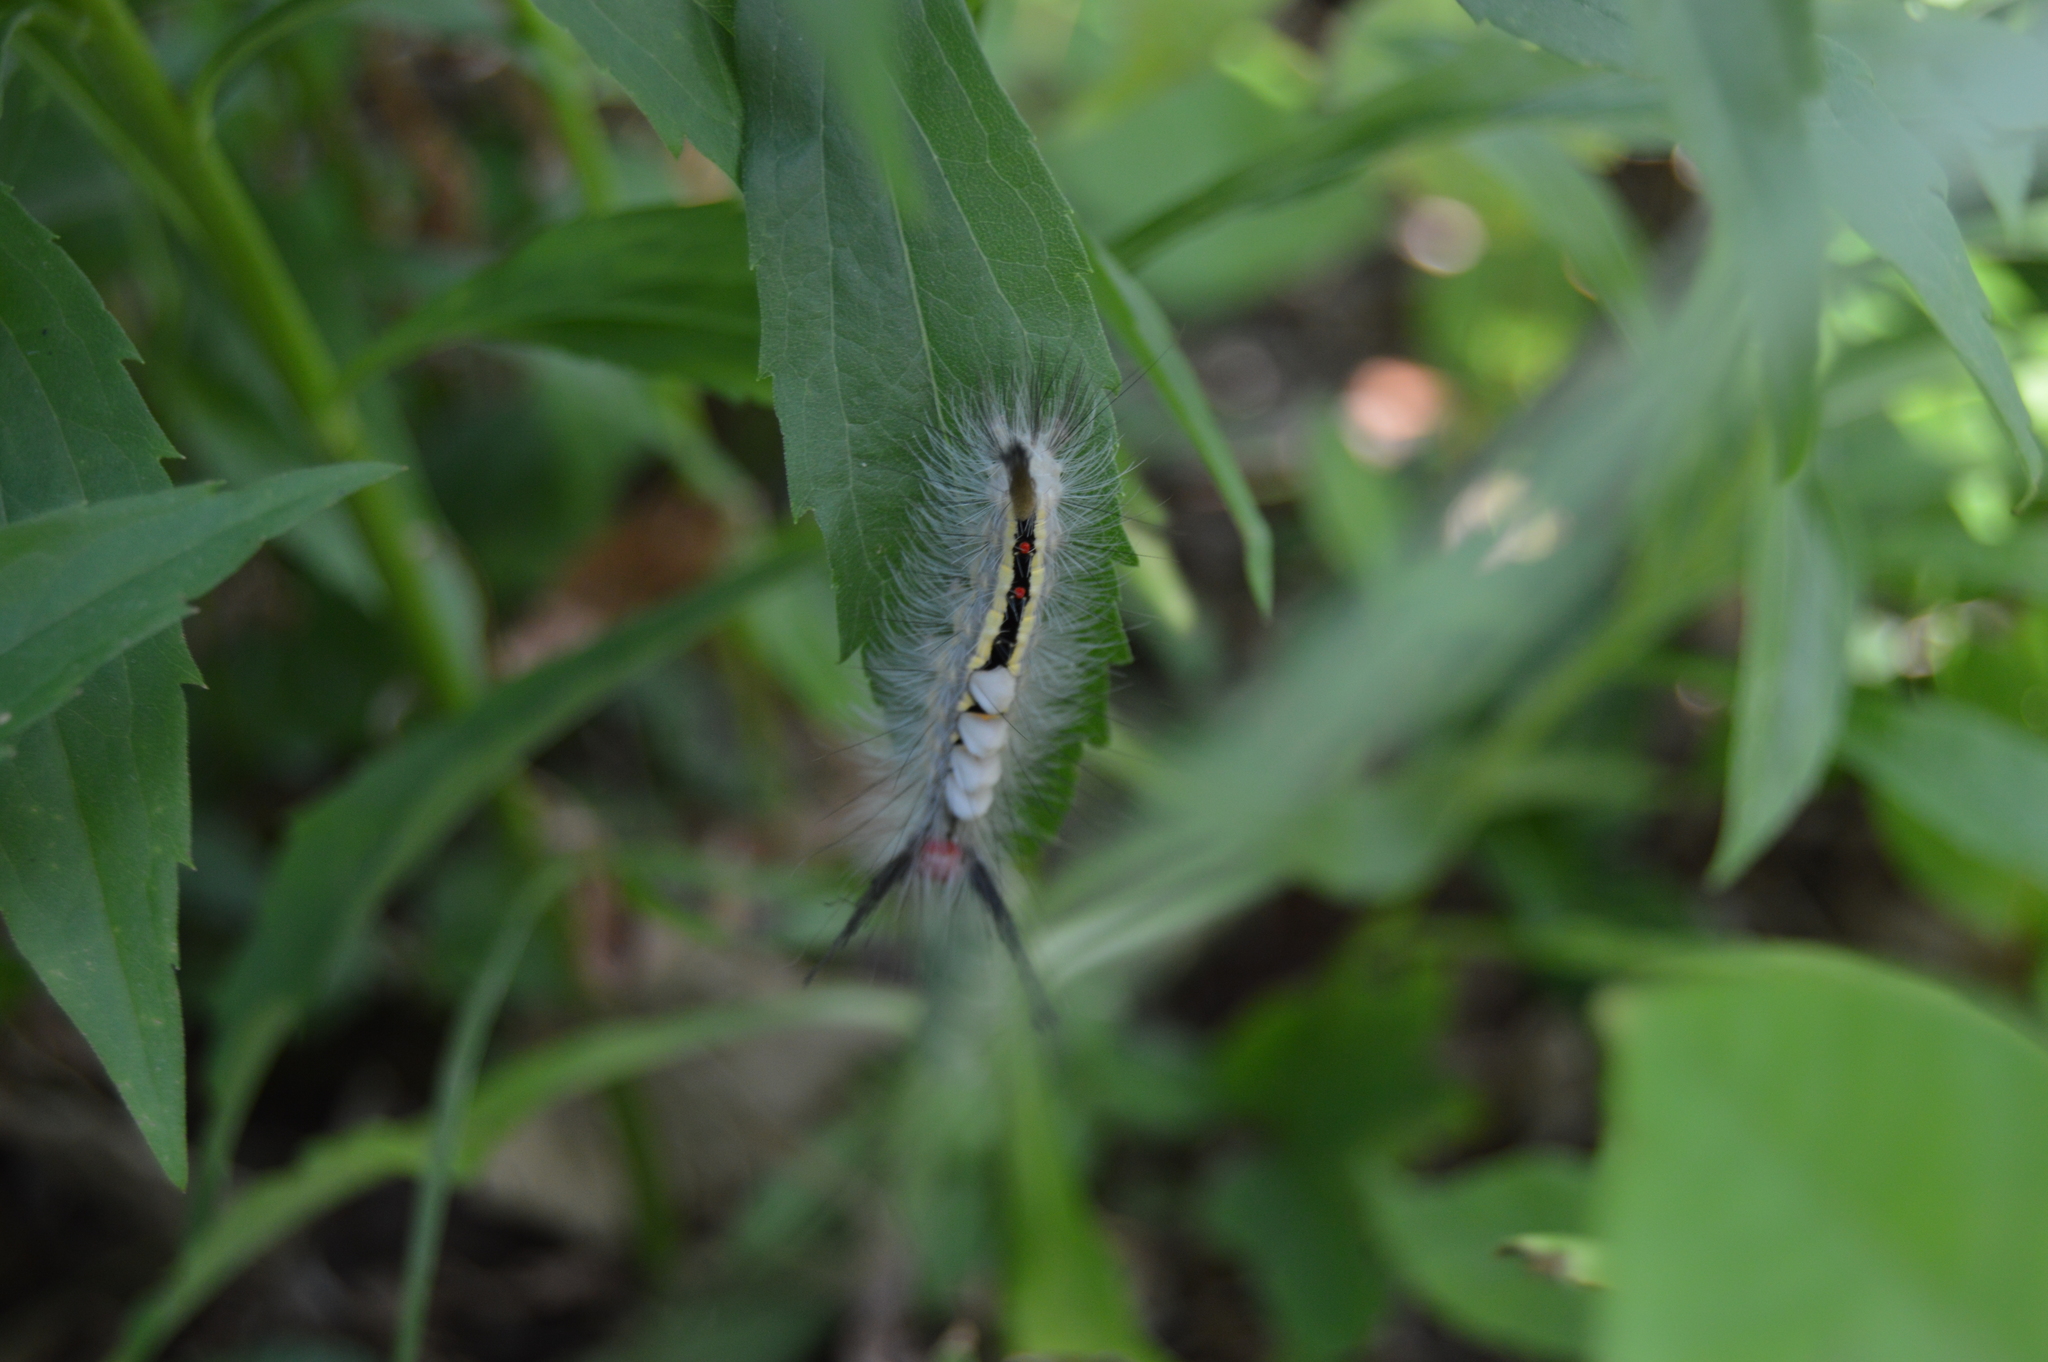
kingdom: Animalia
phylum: Arthropoda
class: Insecta
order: Lepidoptera
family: Erebidae
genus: Orgyia
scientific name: Orgyia leucostigma
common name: White-marked tussock moth
